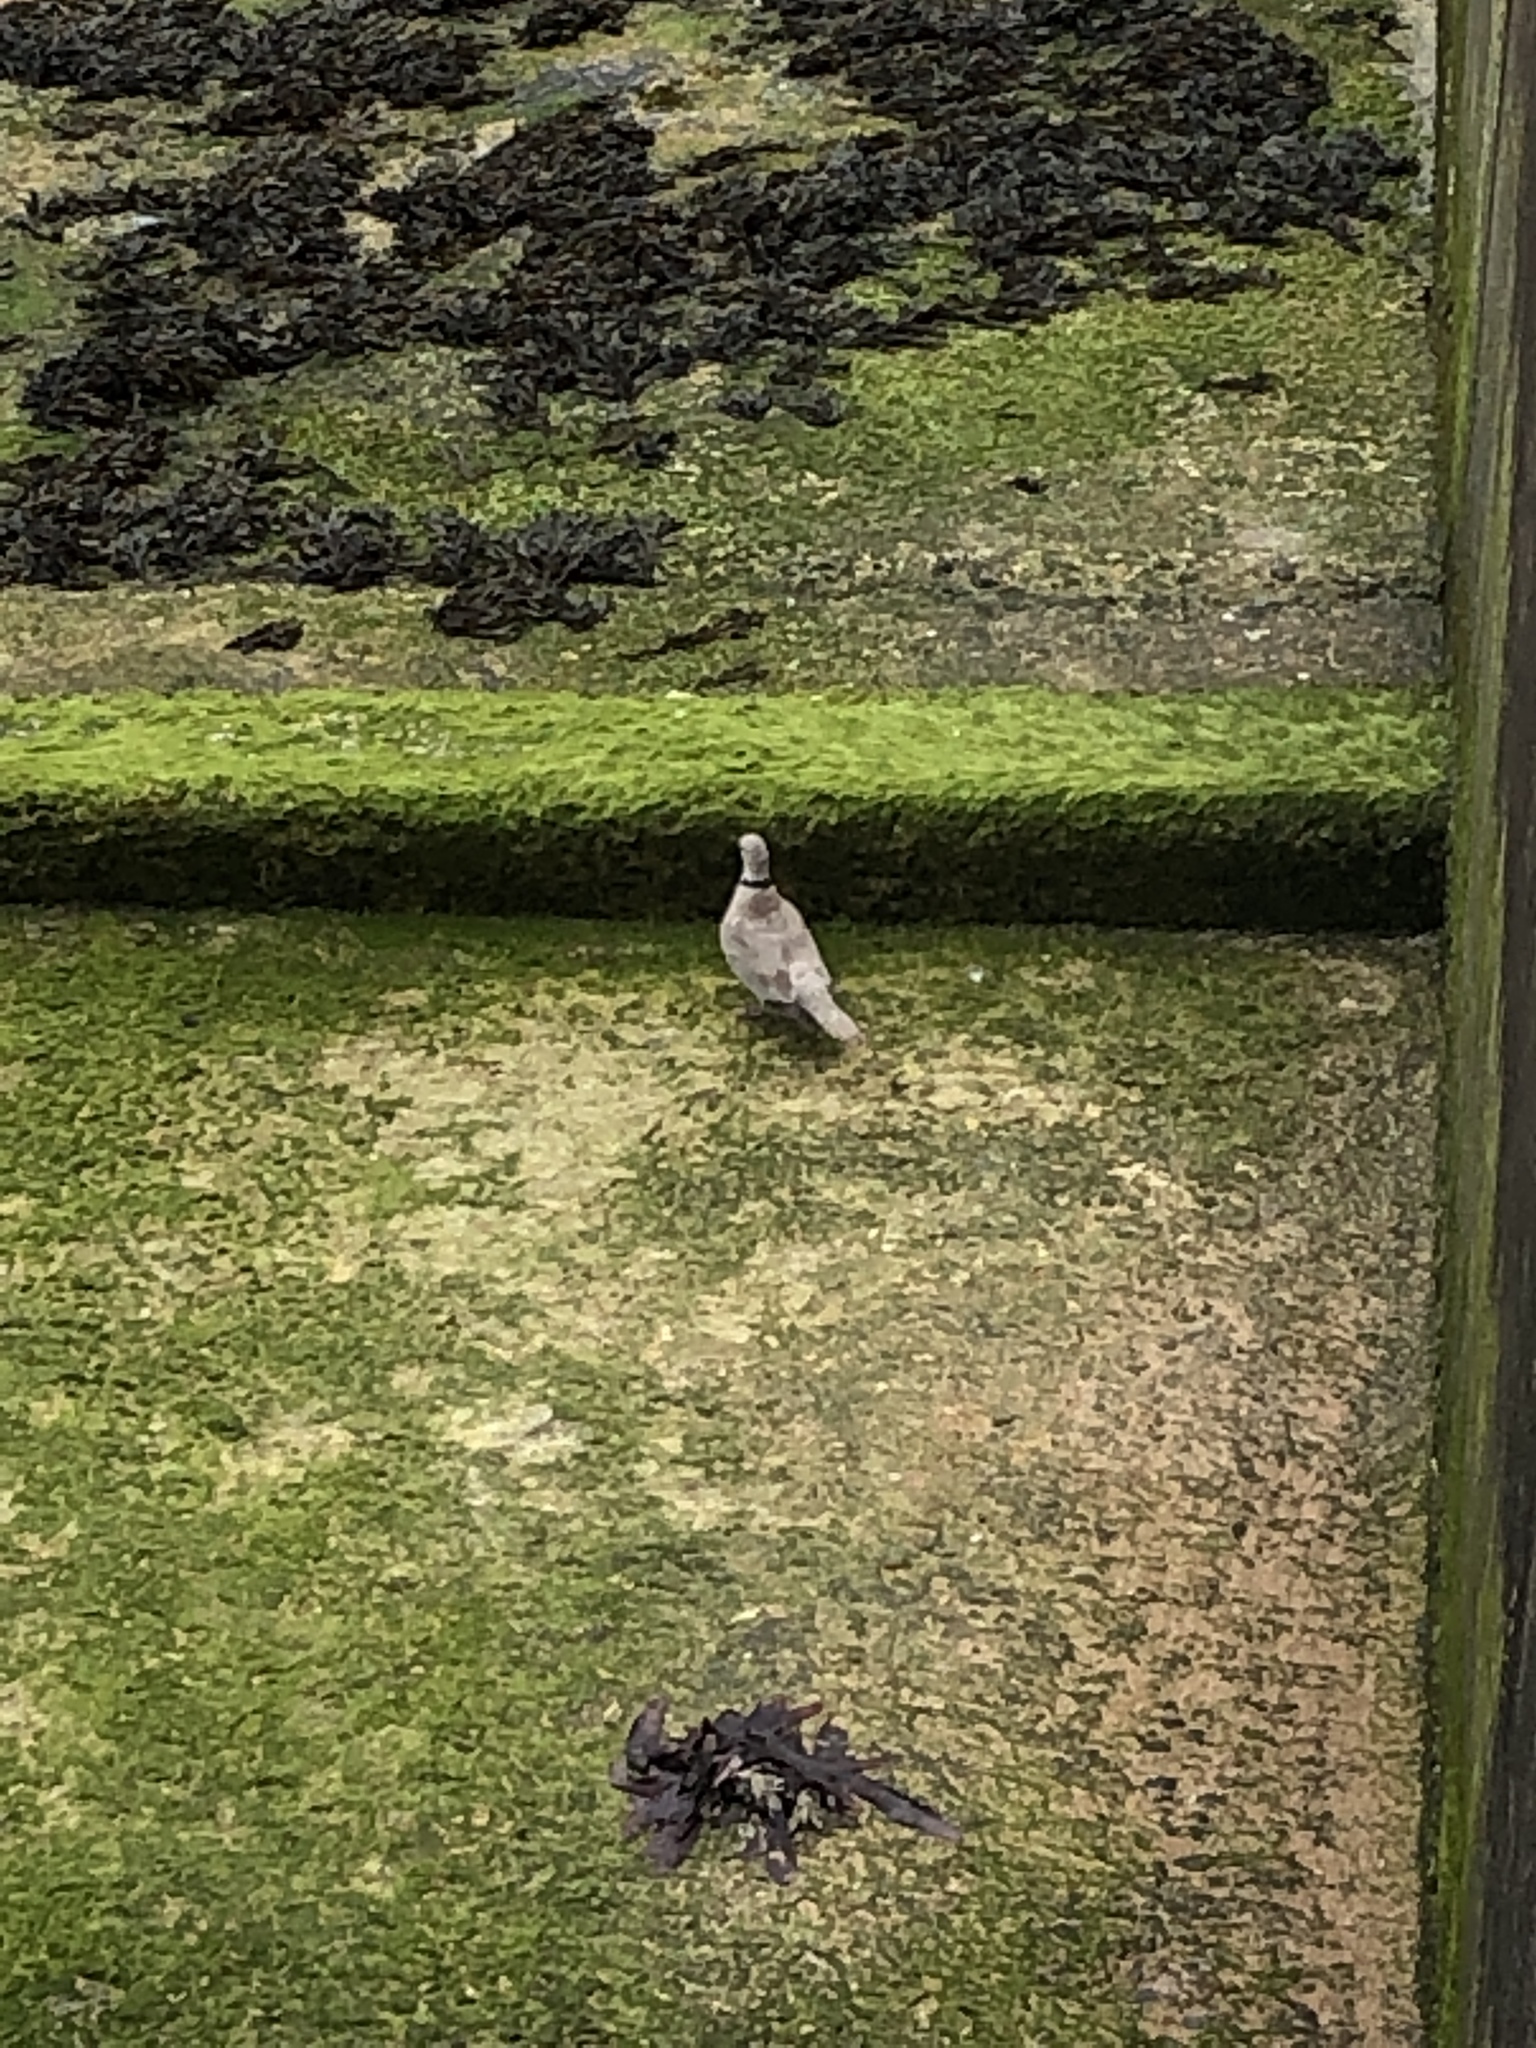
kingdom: Animalia
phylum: Chordata
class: Aves
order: Columbiformes
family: Columbidae
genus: Streptopelia
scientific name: Streptopelia decaocto
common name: Eurasian collared dove
